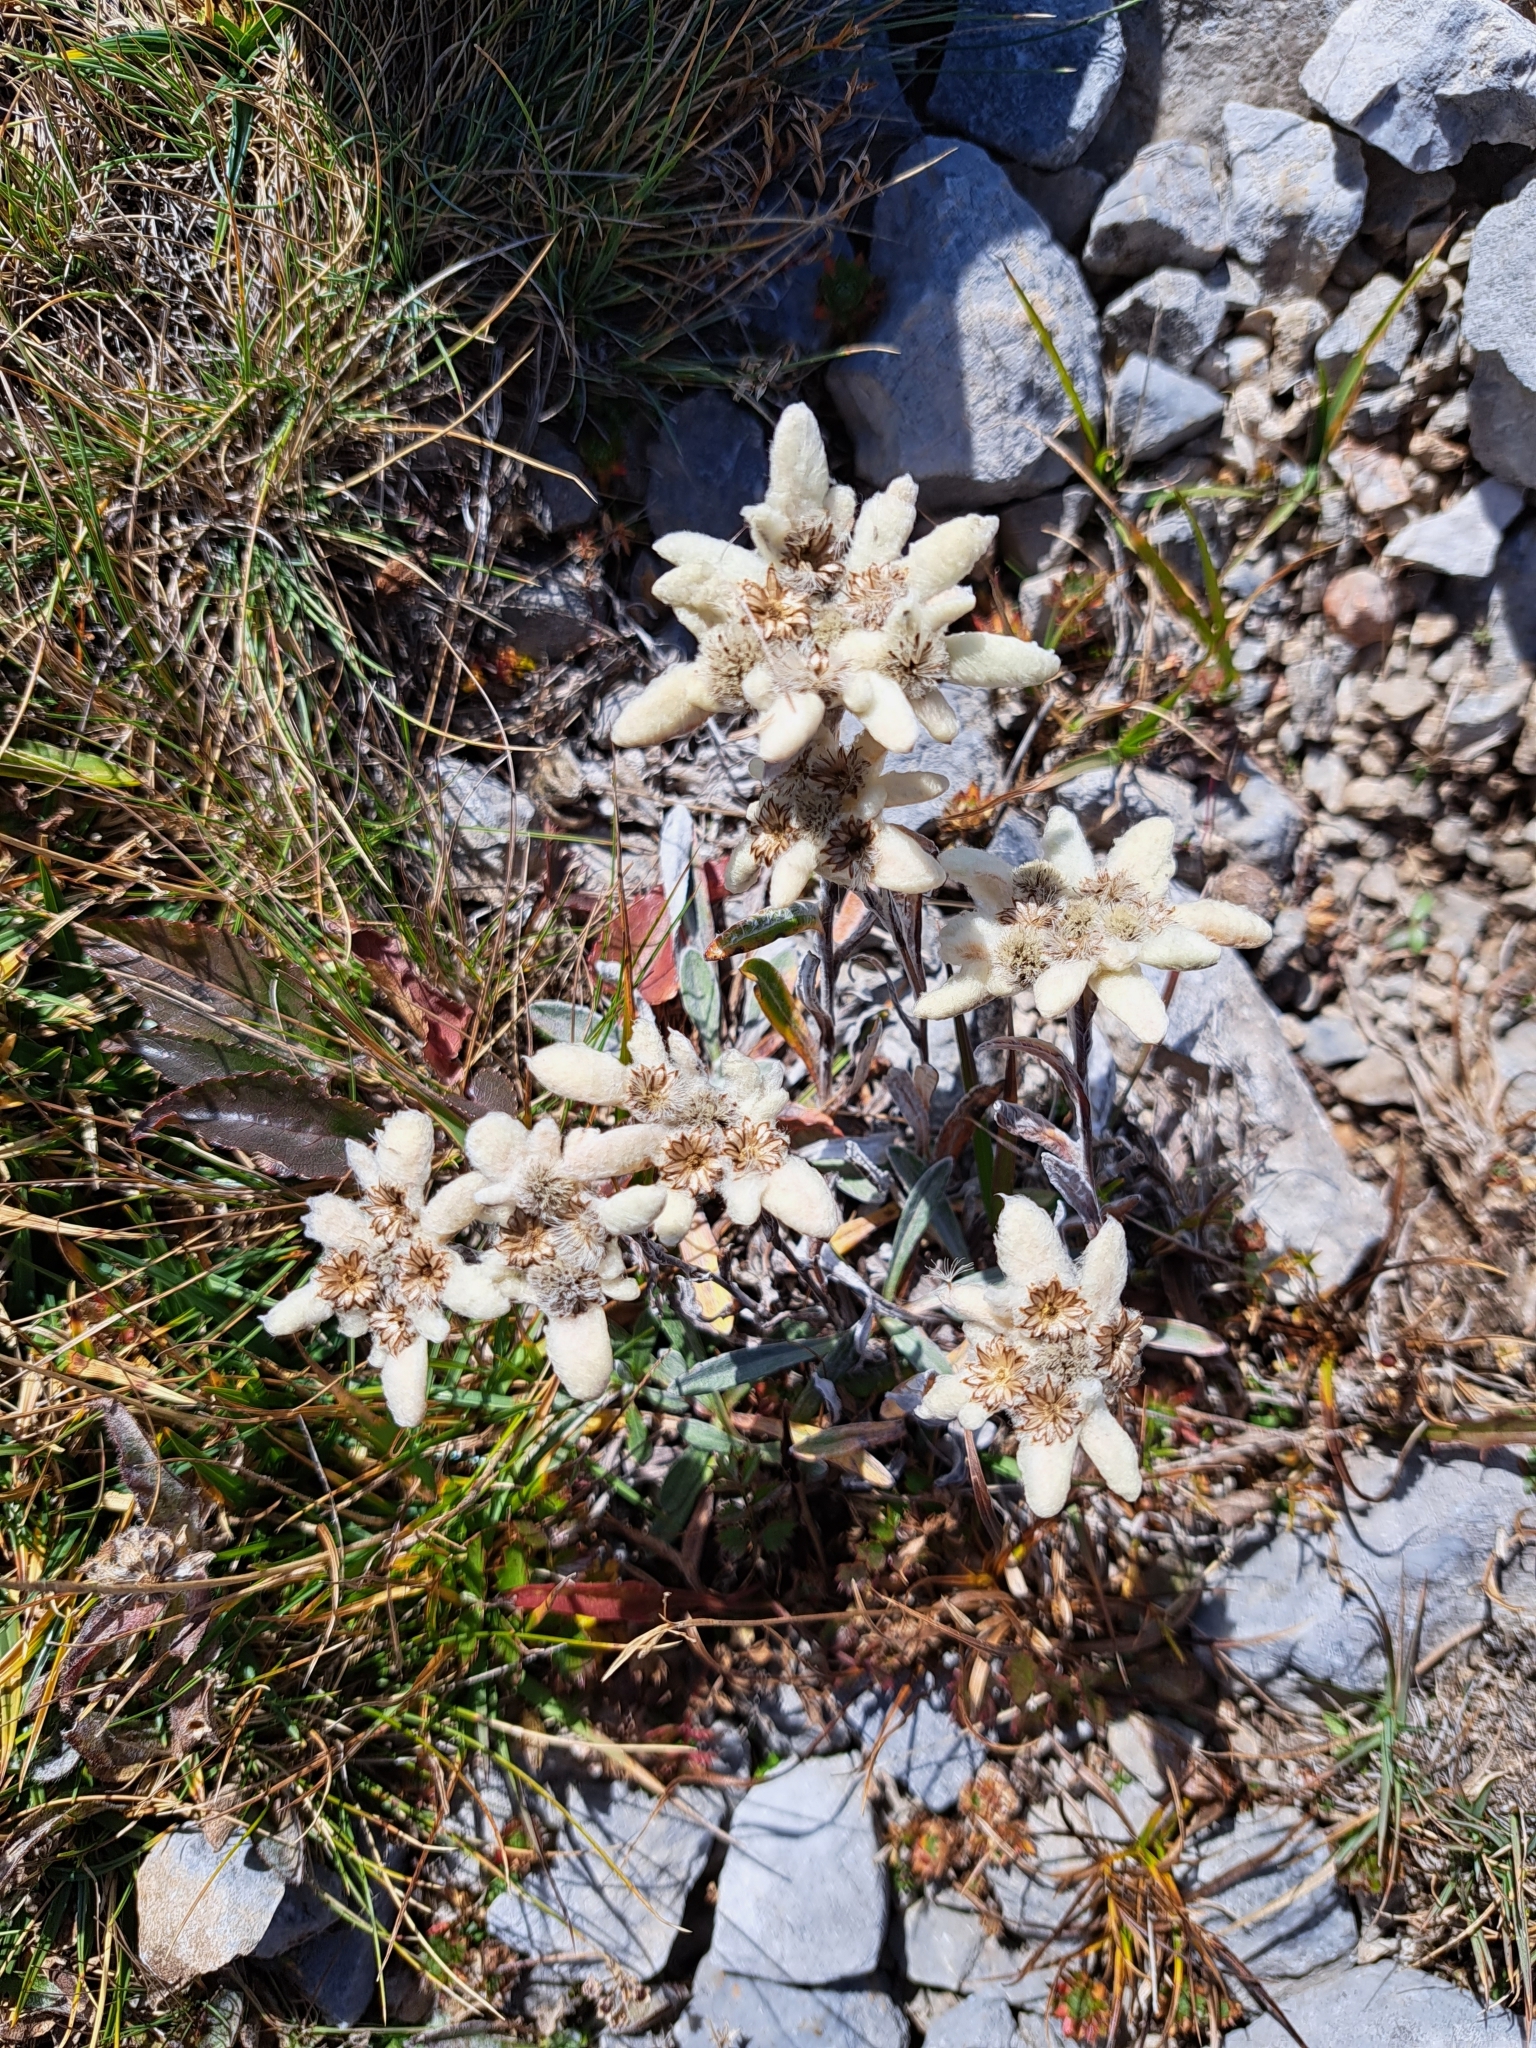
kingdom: Plantae
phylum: Tracheophyta
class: Magnoliopsida
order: Asterales
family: Asteraceae
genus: Leontopodium
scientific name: Leontopodium nivale
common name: Edelweiss
